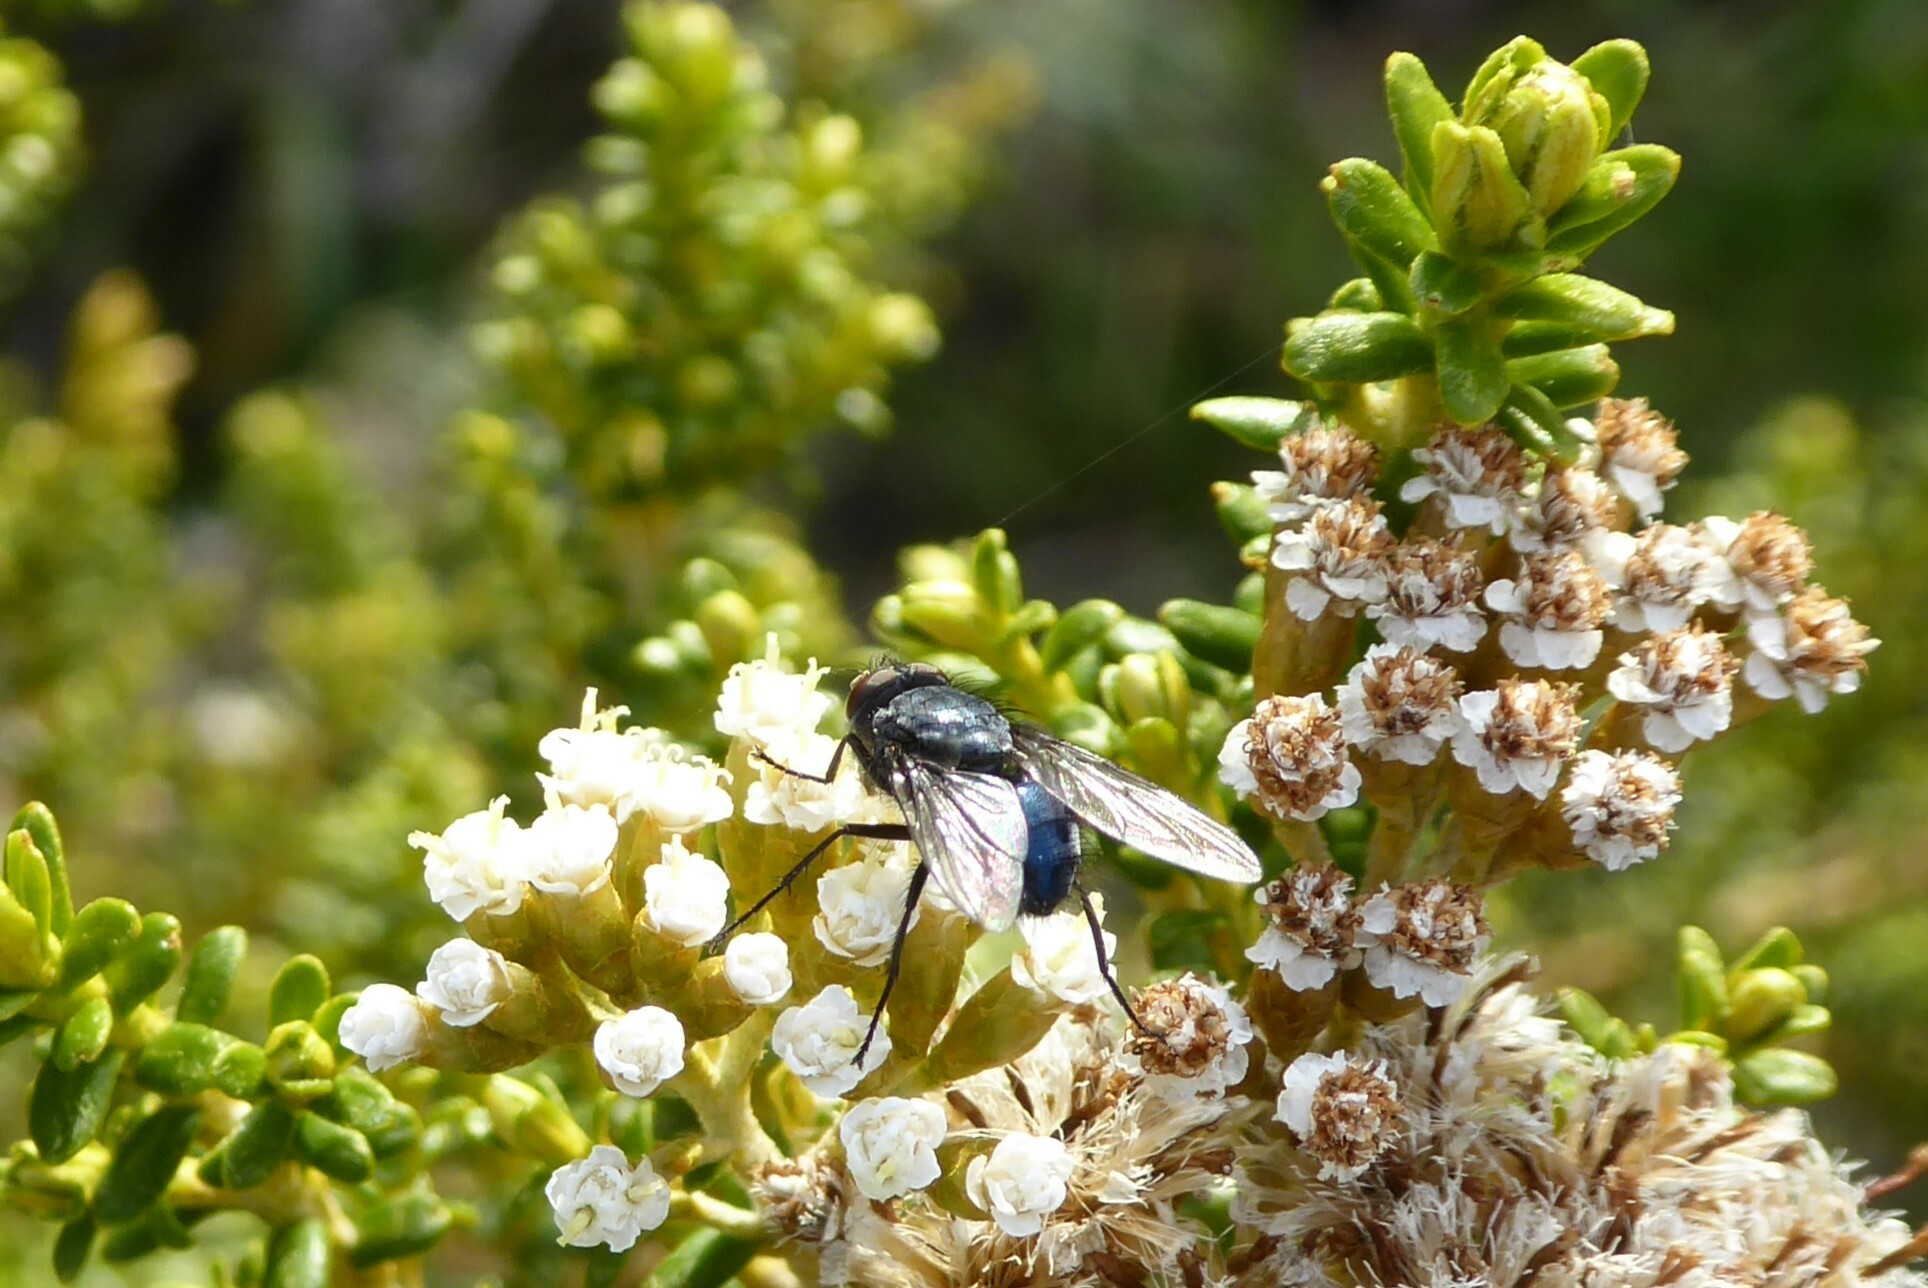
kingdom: Animalia
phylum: Arthropoda
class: Insecta
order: Diptera
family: Calliphoridae
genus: Calliphora
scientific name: Calliphora vicina
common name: Common blow flie
